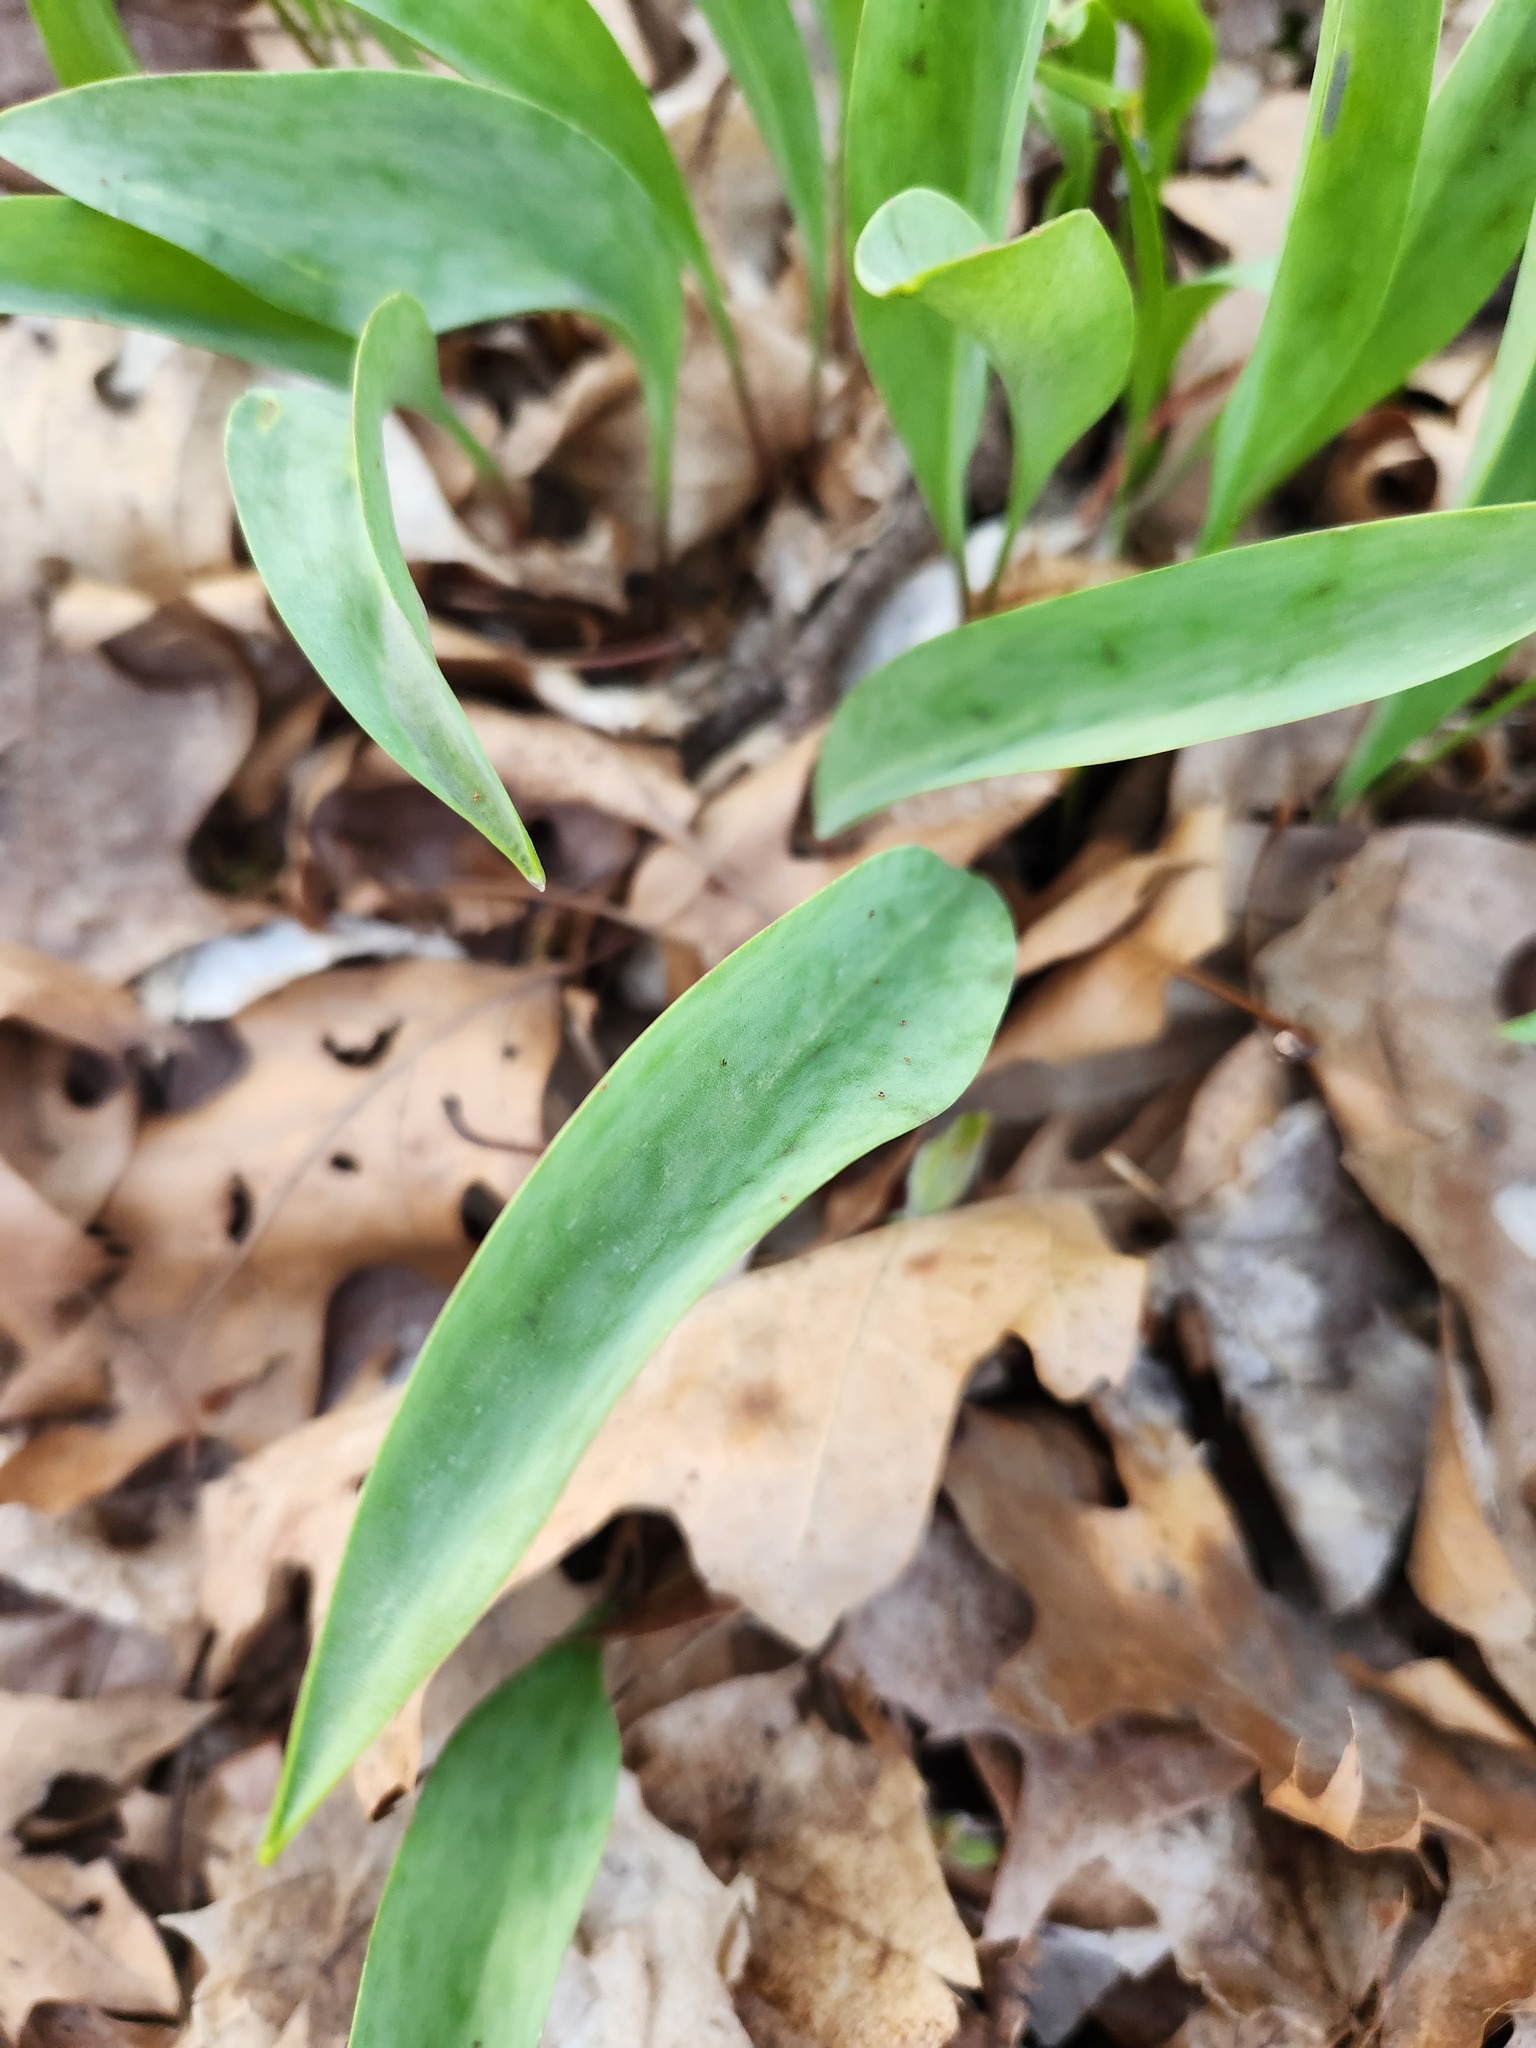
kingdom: Plantae
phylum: Tracheophyta
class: Liliopsida
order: Liliales
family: Liliaceae
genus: Erythronium
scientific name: Erythronium albidum
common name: White trout-lily
